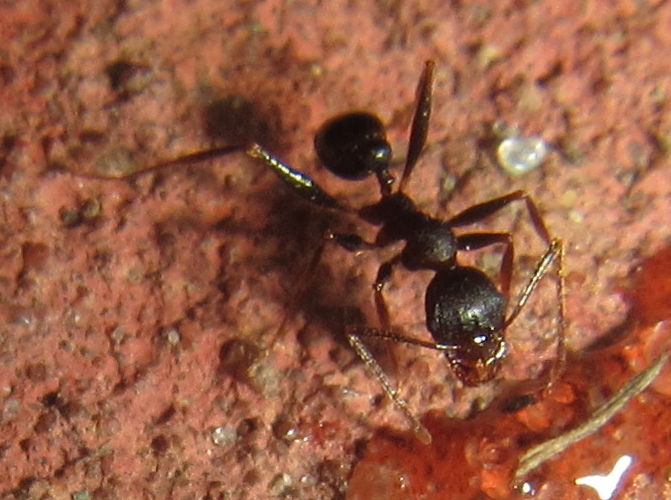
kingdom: Animalia
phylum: Arthropoda
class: Insecta
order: Hymenoptera
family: Formicidae
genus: Pheidole
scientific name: Pheidole crassinoda
